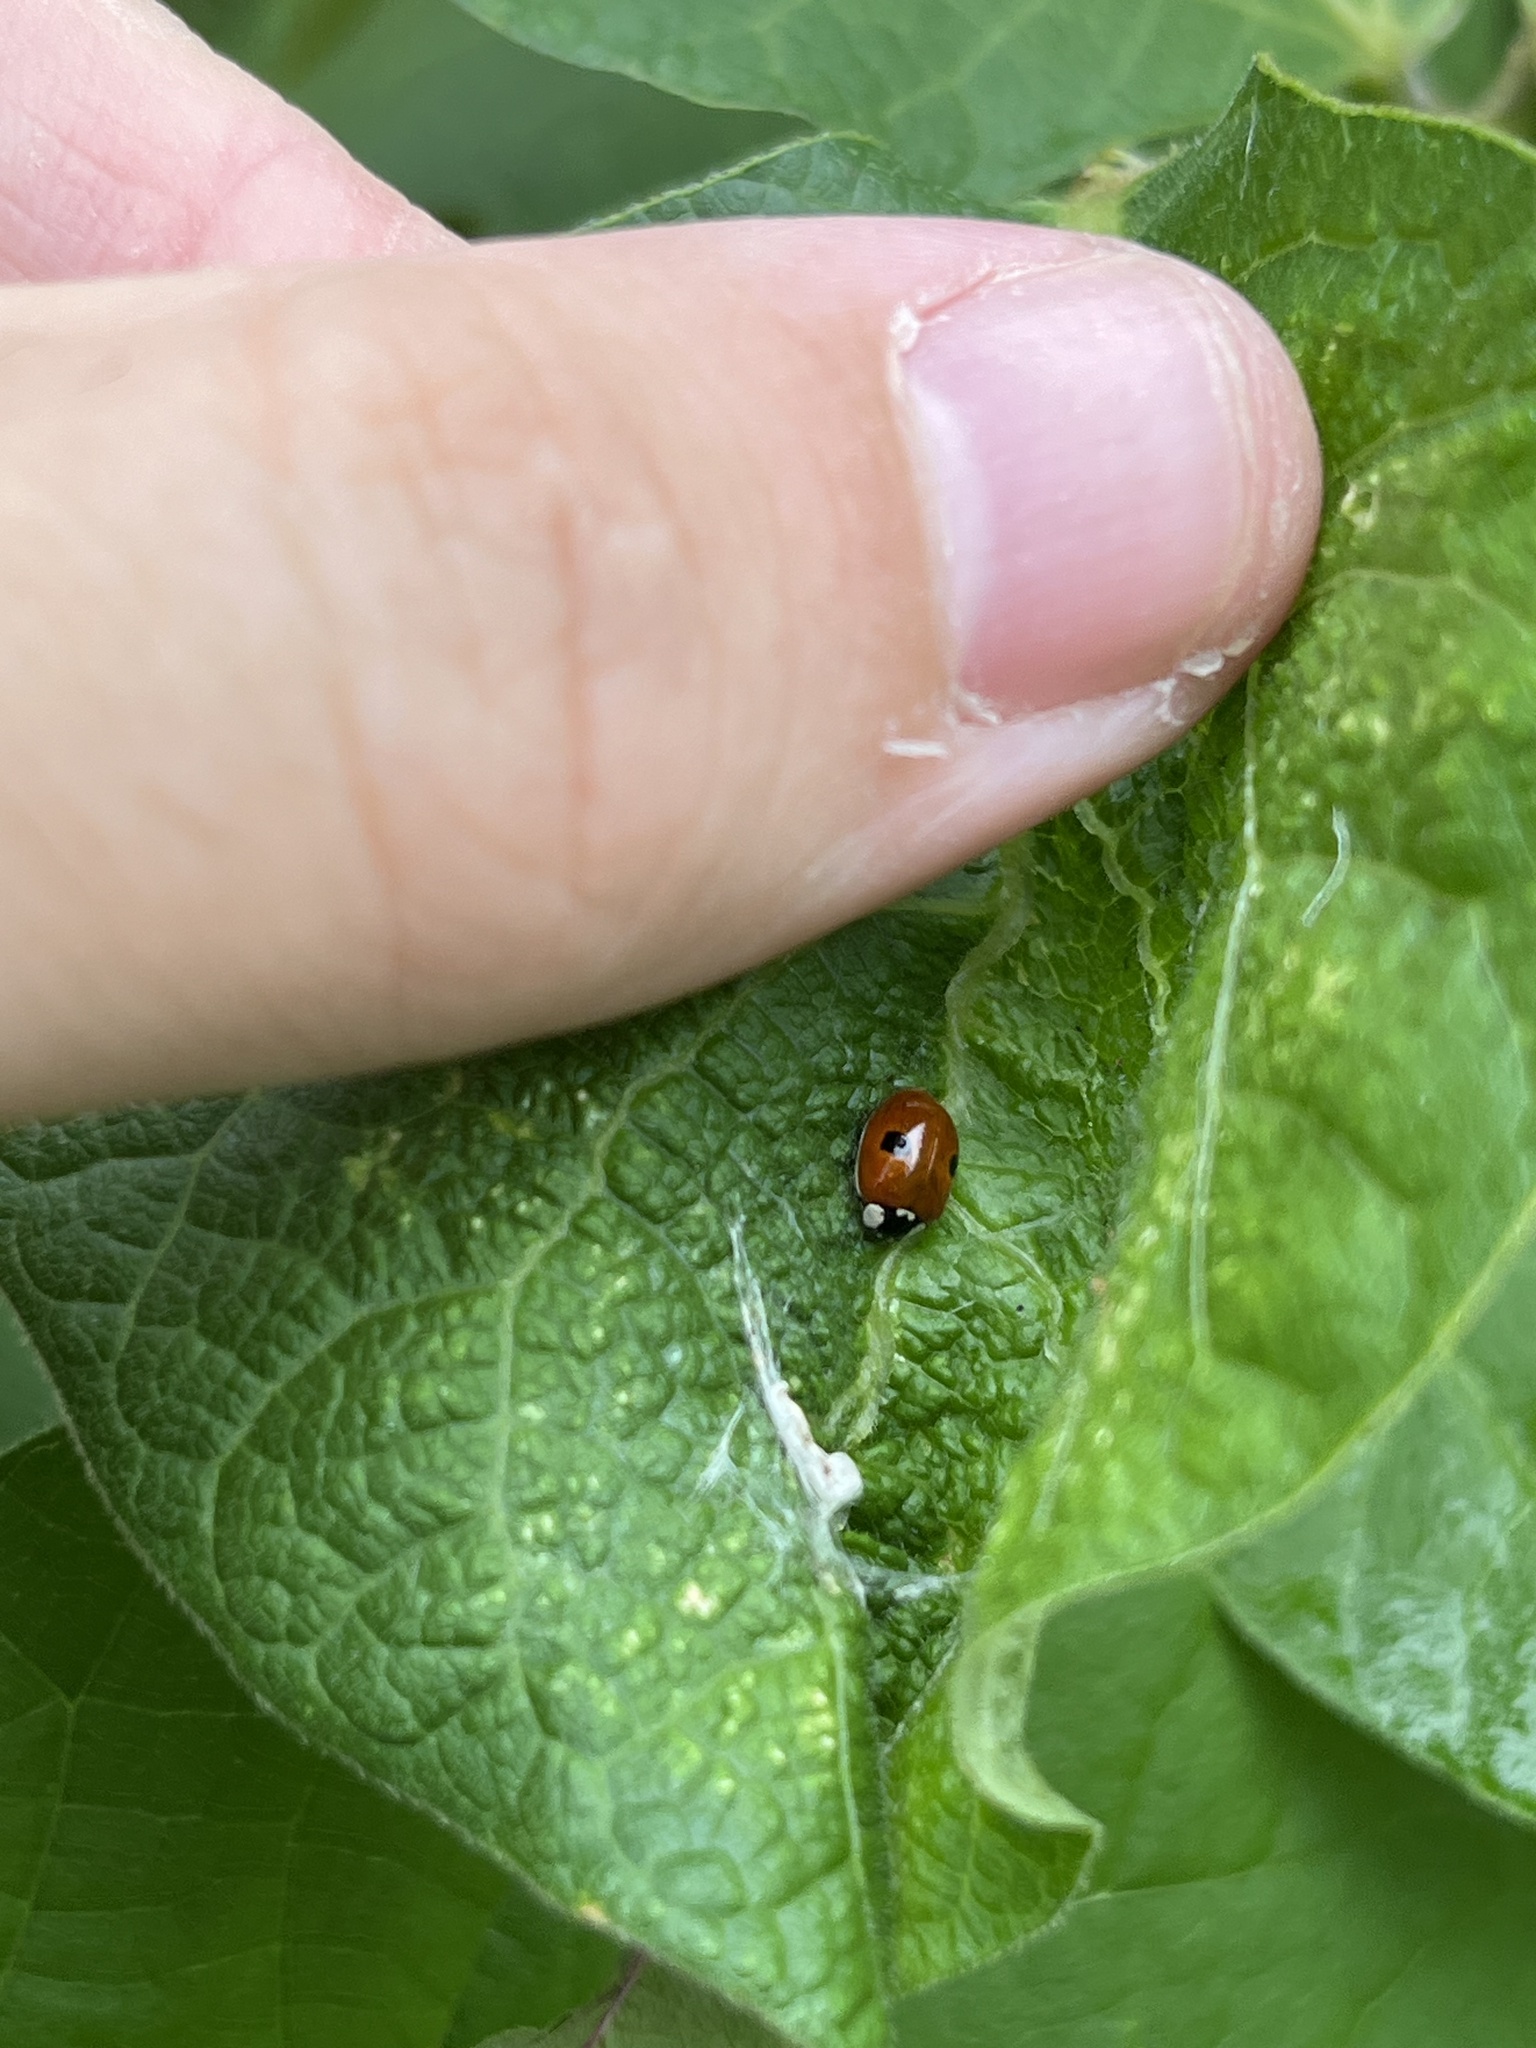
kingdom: Animalia
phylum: Arthropoda
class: Insecta
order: Coleoptera
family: Coccinellidae
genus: Adalia
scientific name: Adalia bipunctata
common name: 2-spot ladybird
